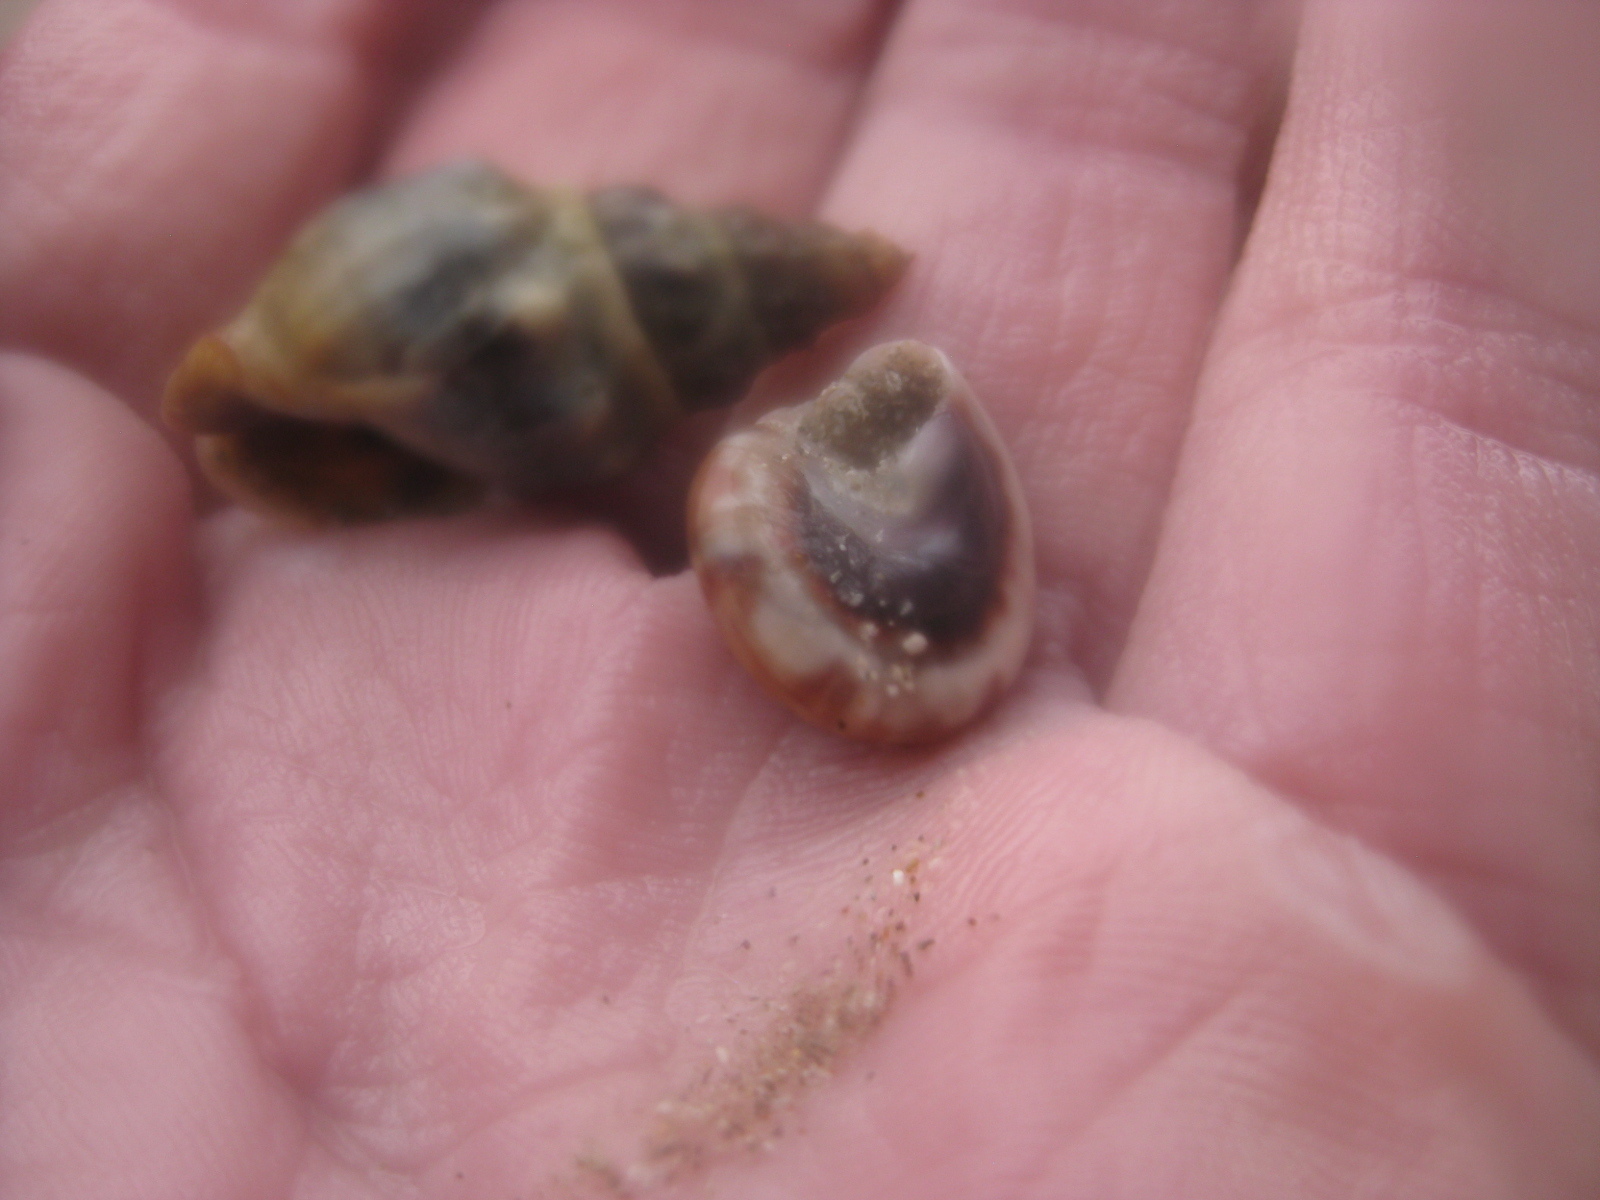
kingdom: Animalia
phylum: Mollusca
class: Gastropoda
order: Trochida
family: Trochidae
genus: Zethalia
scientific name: Zethalia zelandica
